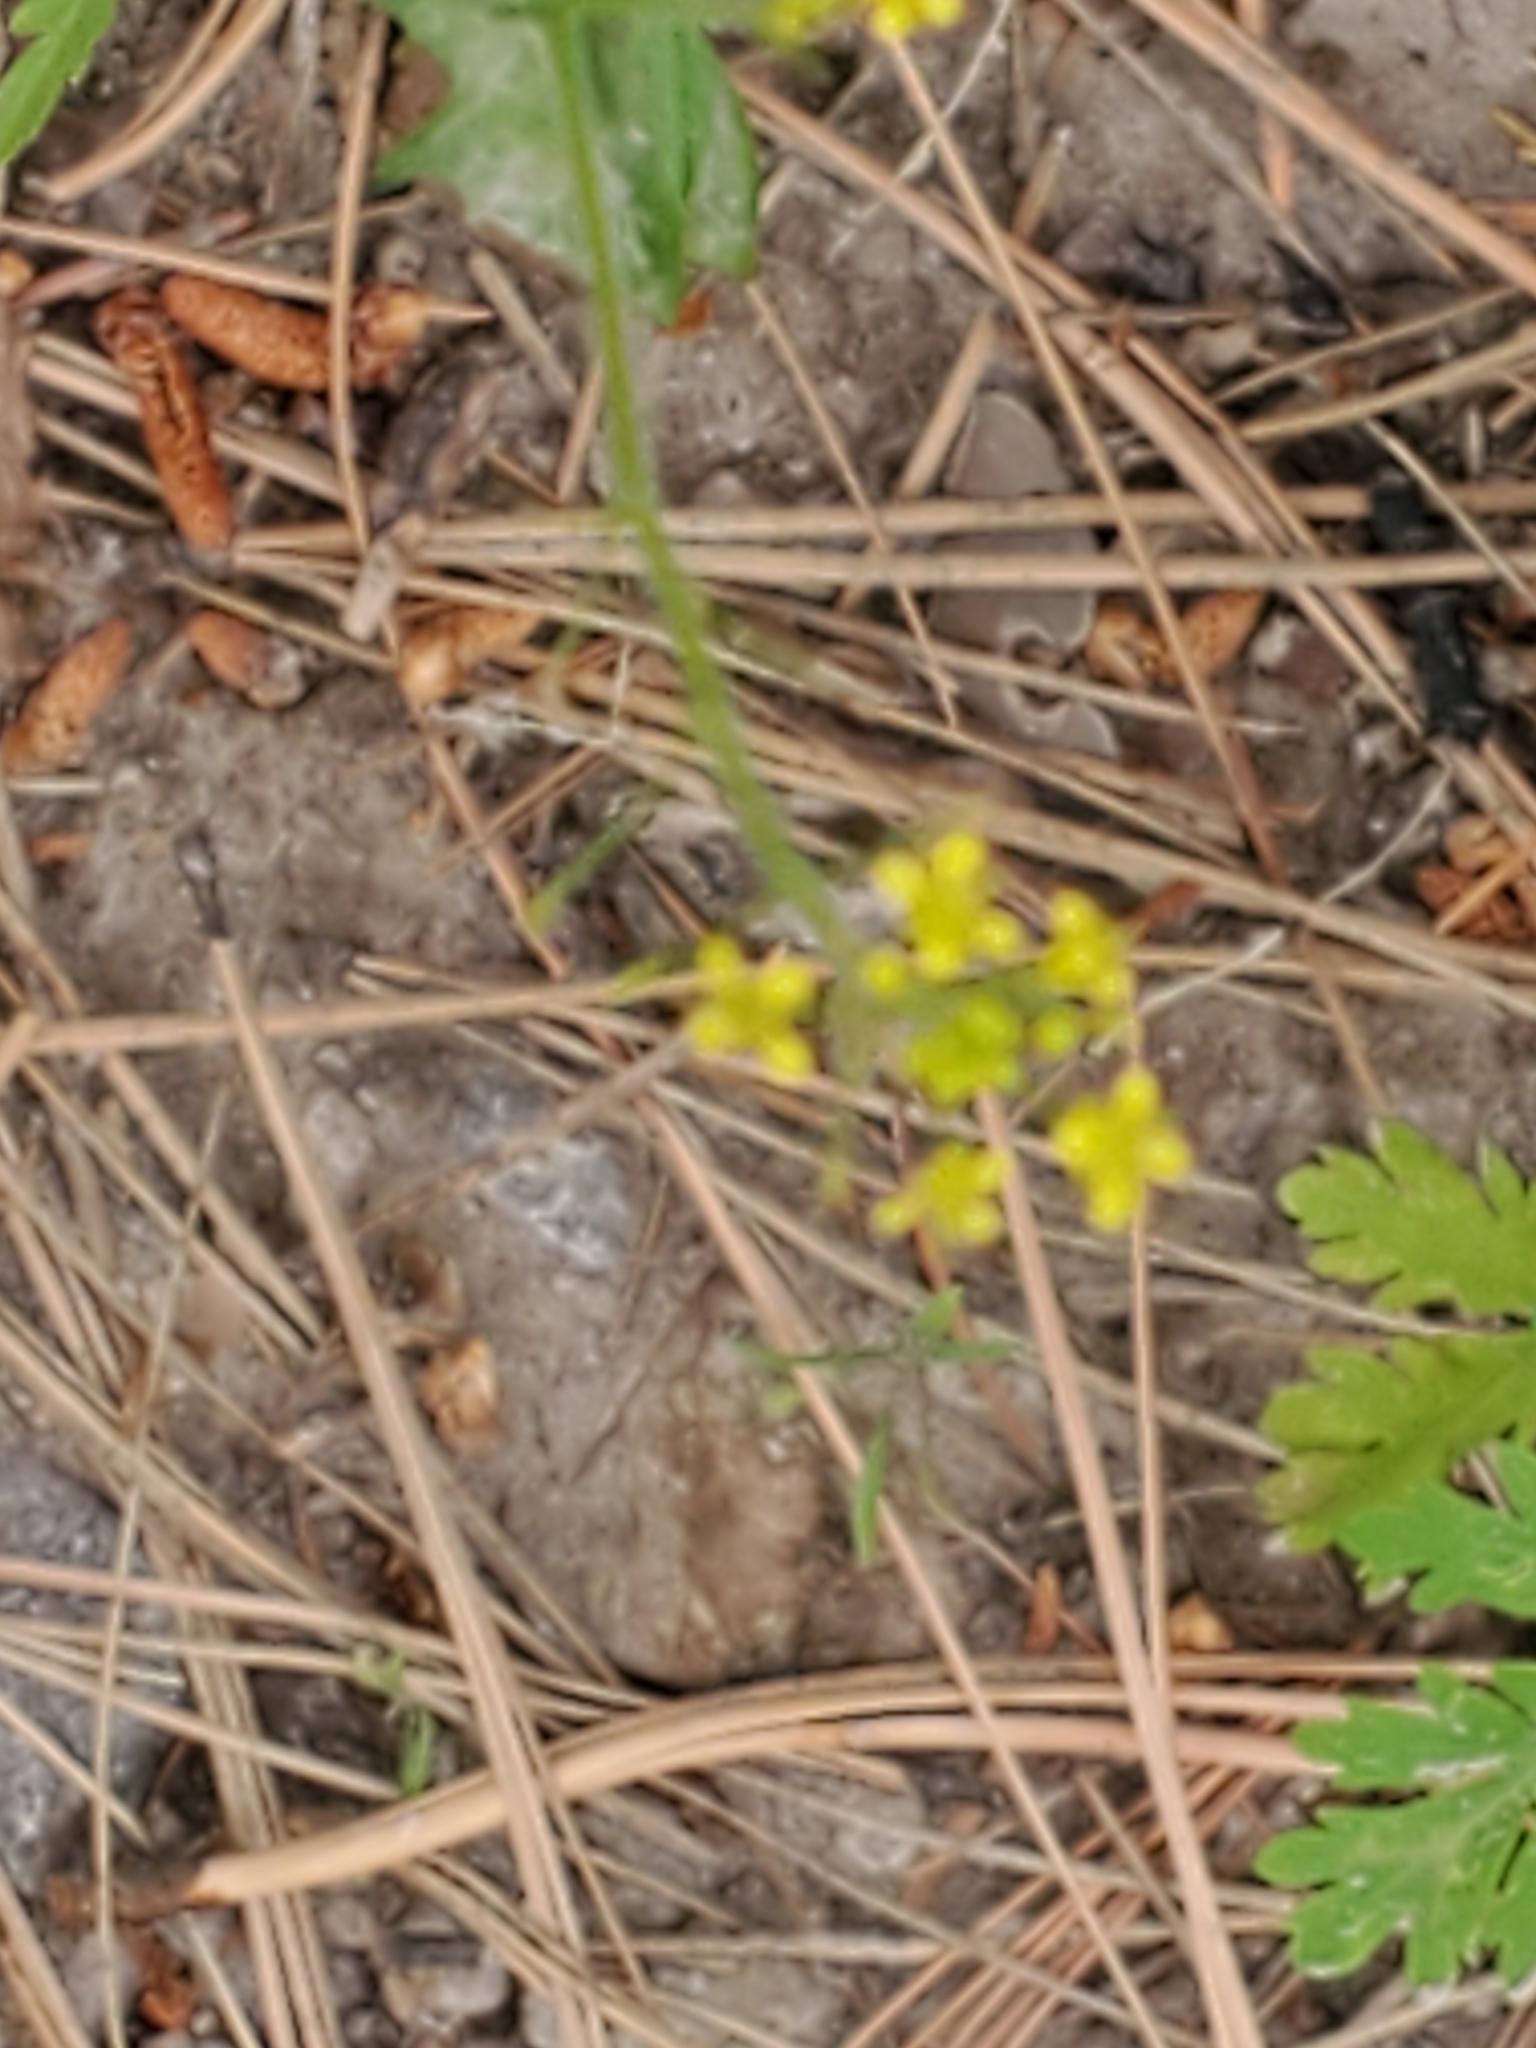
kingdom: Plantae
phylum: Tracheophyta
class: Magnoliopsida
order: Brassicales
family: Brassicaceae
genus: Descurainia
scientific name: Descurainia incisa
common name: Cut-leaved tansy mustard
